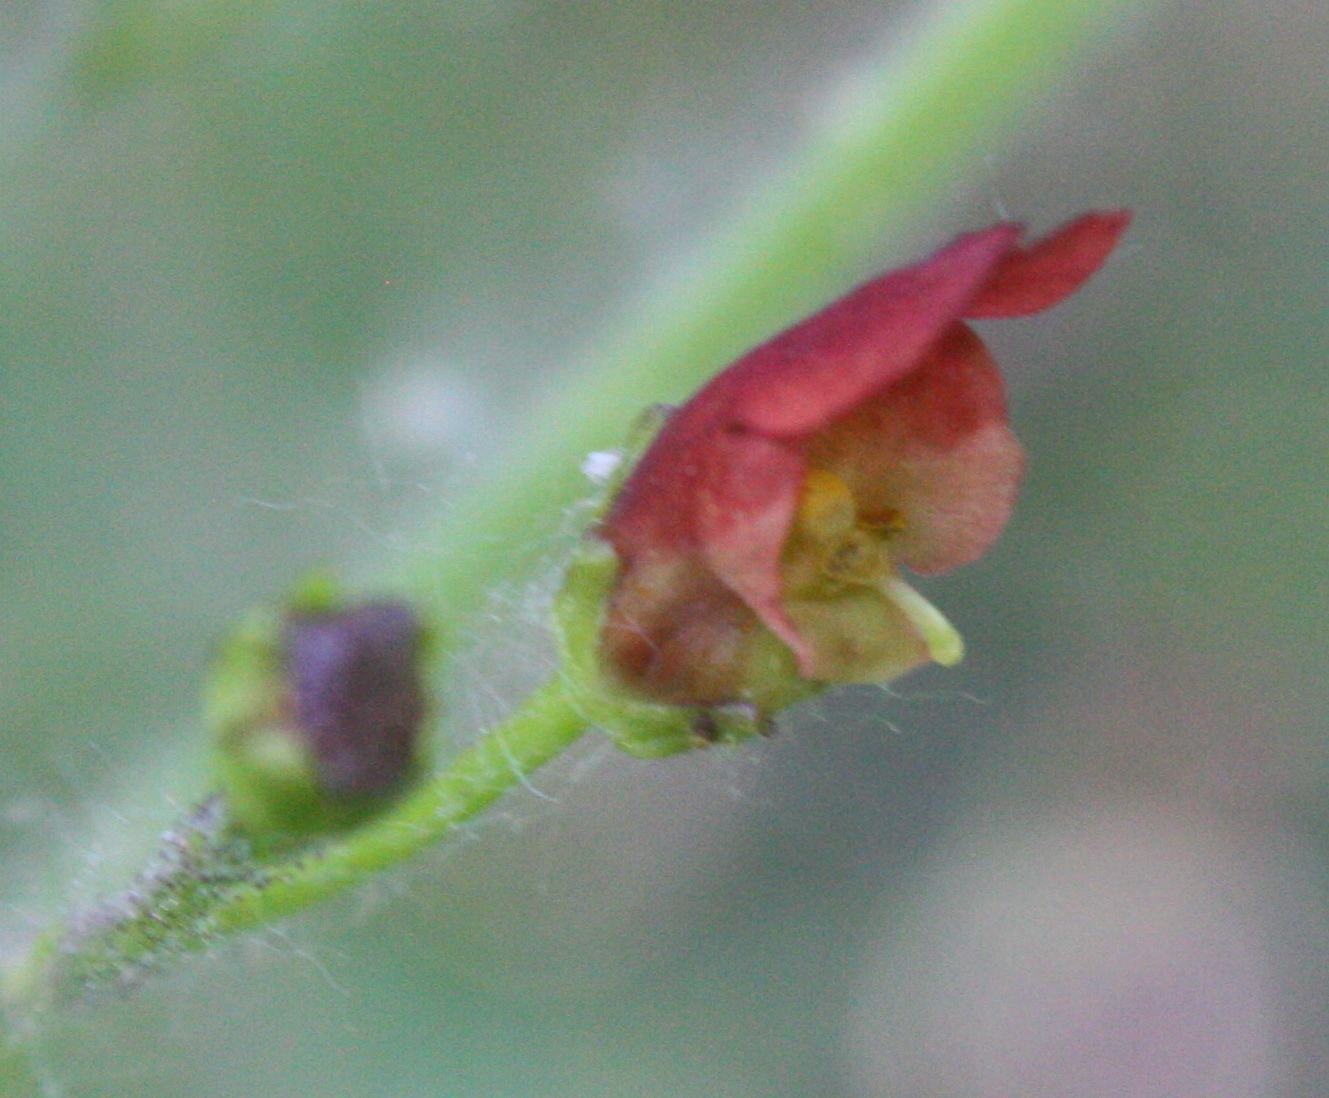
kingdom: Plantae
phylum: Tracheophyta
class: Magnoliopsida
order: Lamiales
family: Scrophulariaceae
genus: Scrophularia
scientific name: Scrophularia californica
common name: California figwort
